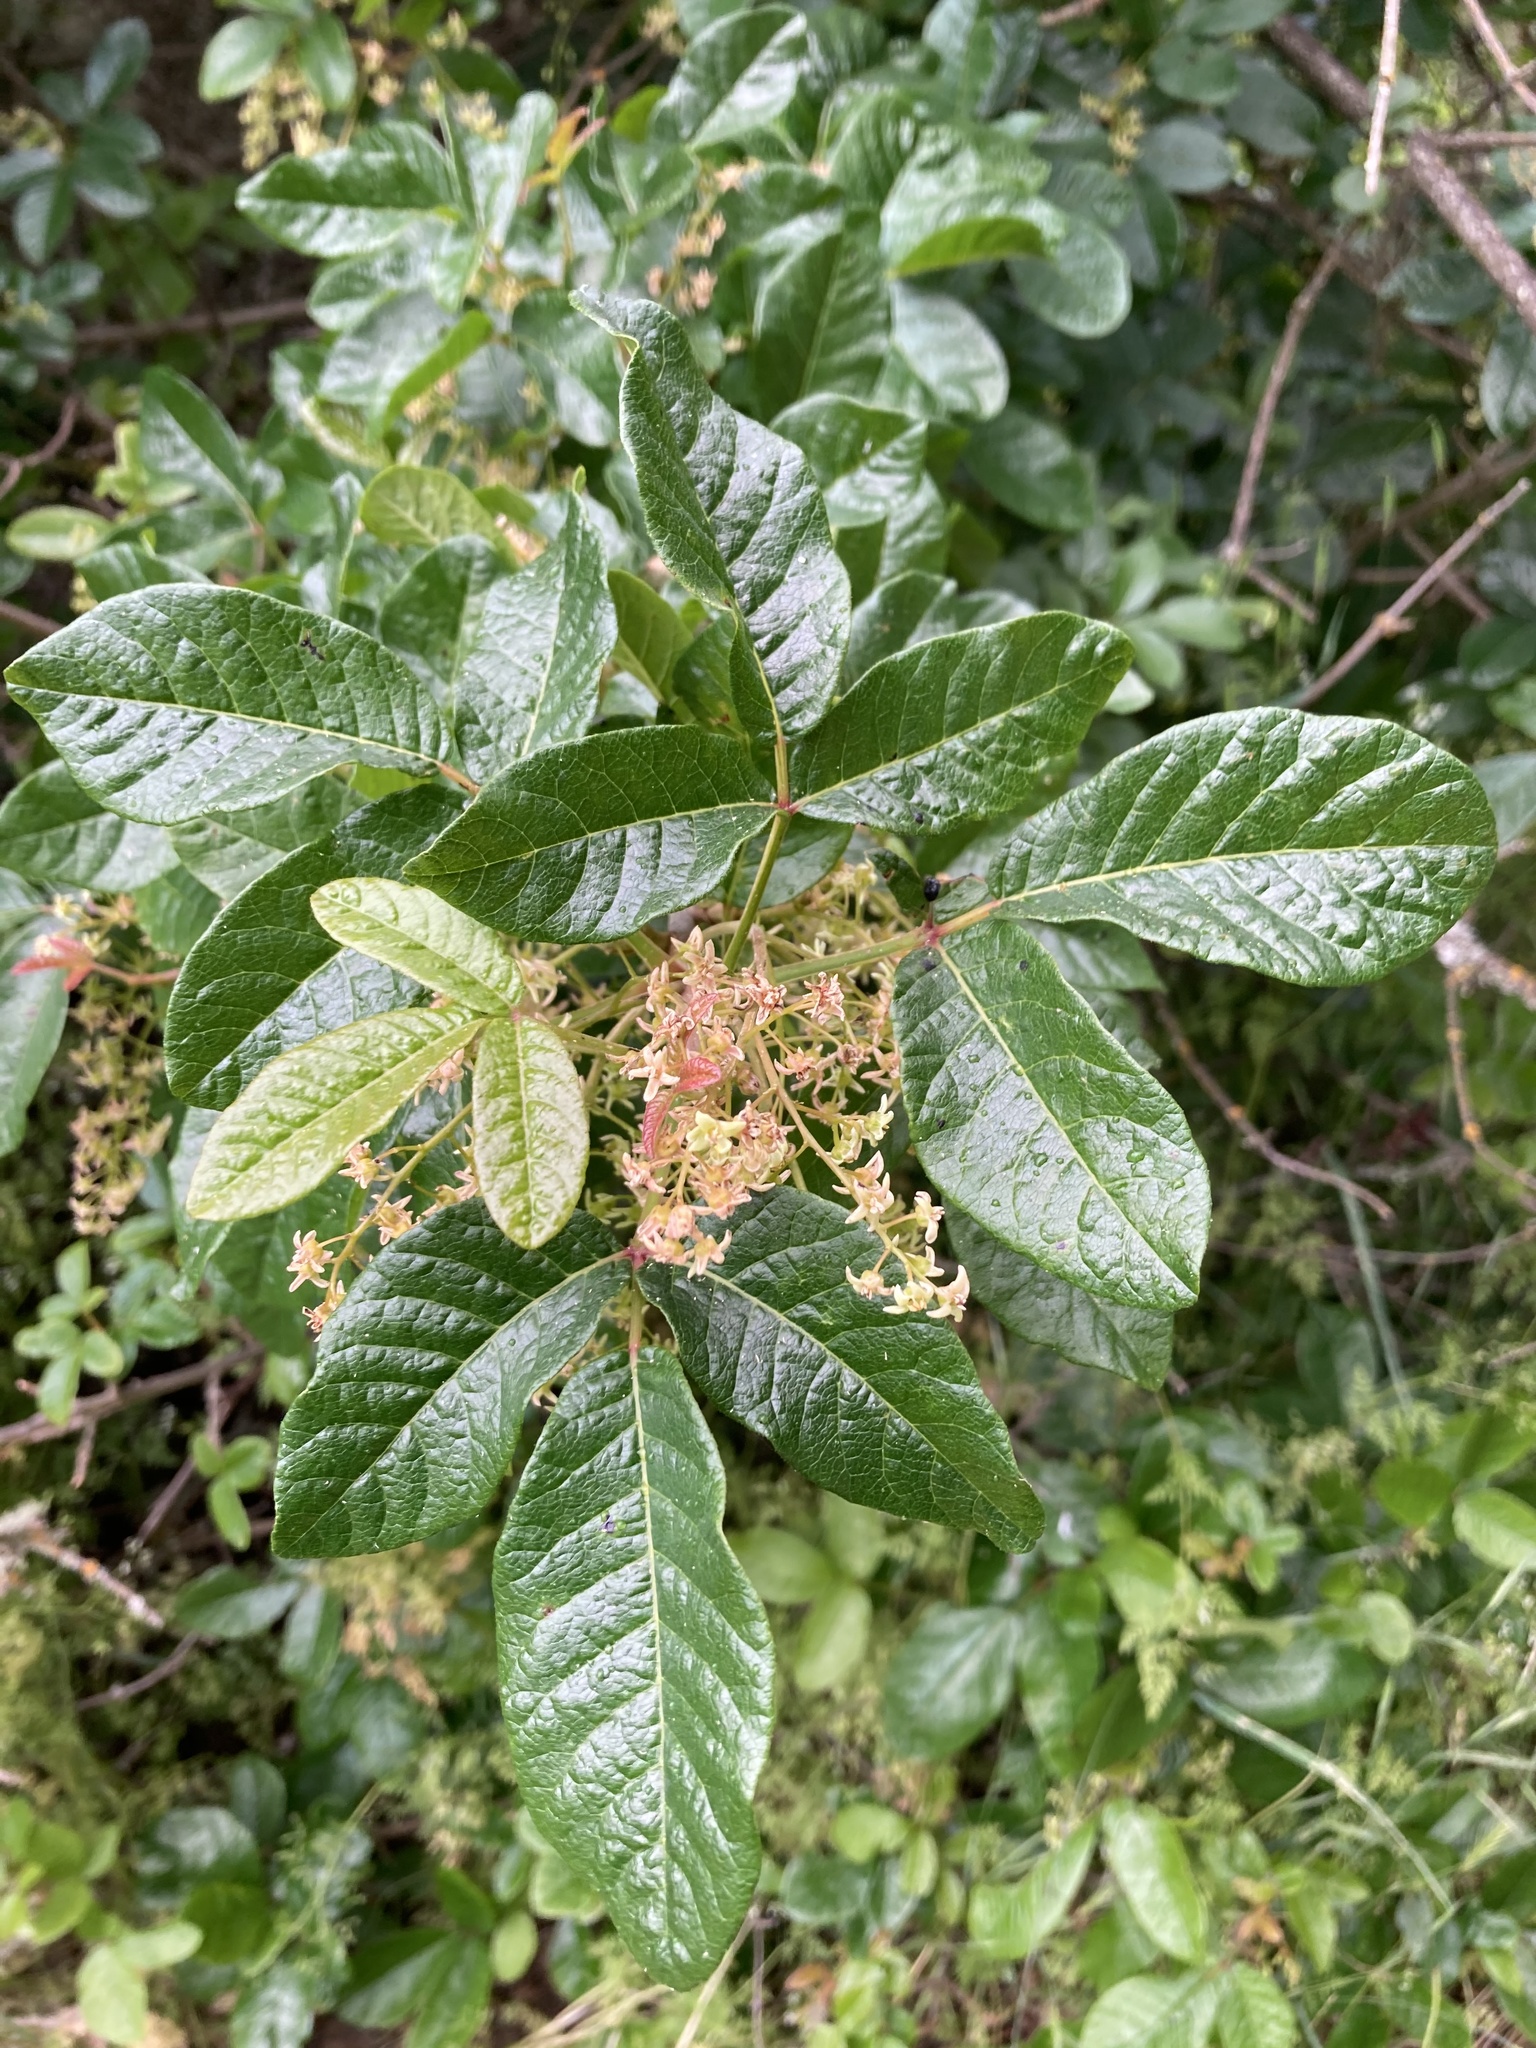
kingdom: Plantae
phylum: Tracheophyta
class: Magnoliopsida
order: Sapindales
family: Anacardiaceae
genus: Toxicodendron
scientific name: Toxicodendron diversilobum
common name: Pacific poison-oak
